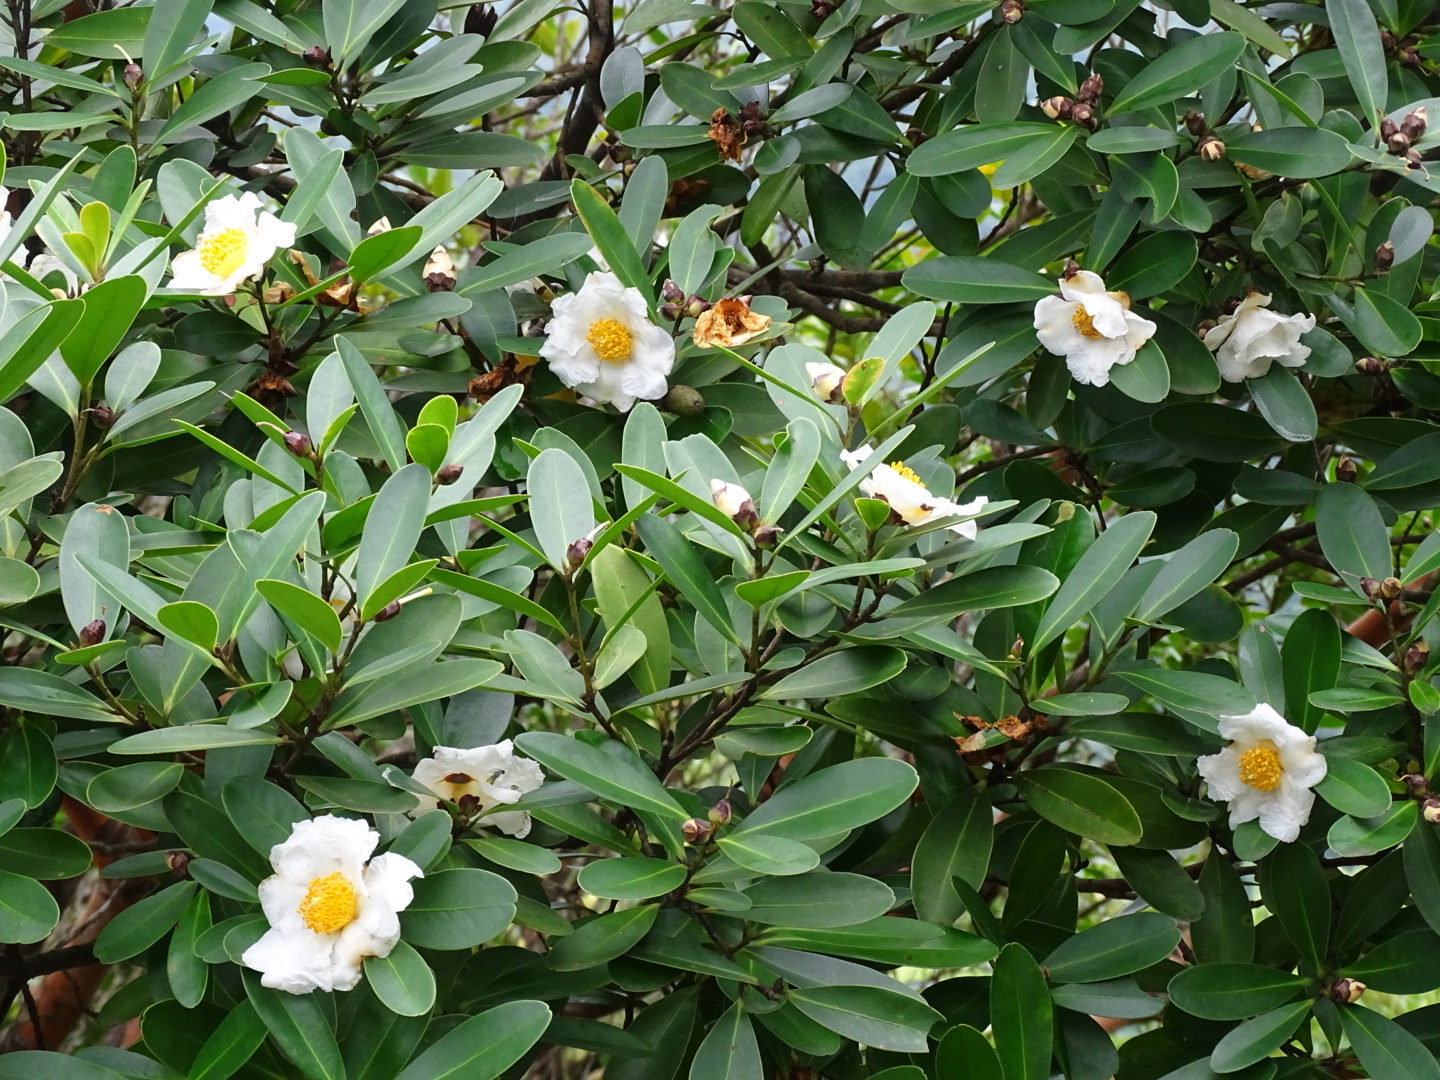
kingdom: Plantae
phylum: Tracheophyta
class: Magnoliopsida
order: Ericales
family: Theaceae
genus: Polyspora
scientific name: Polyspora axillaris
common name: Fried egg tree
